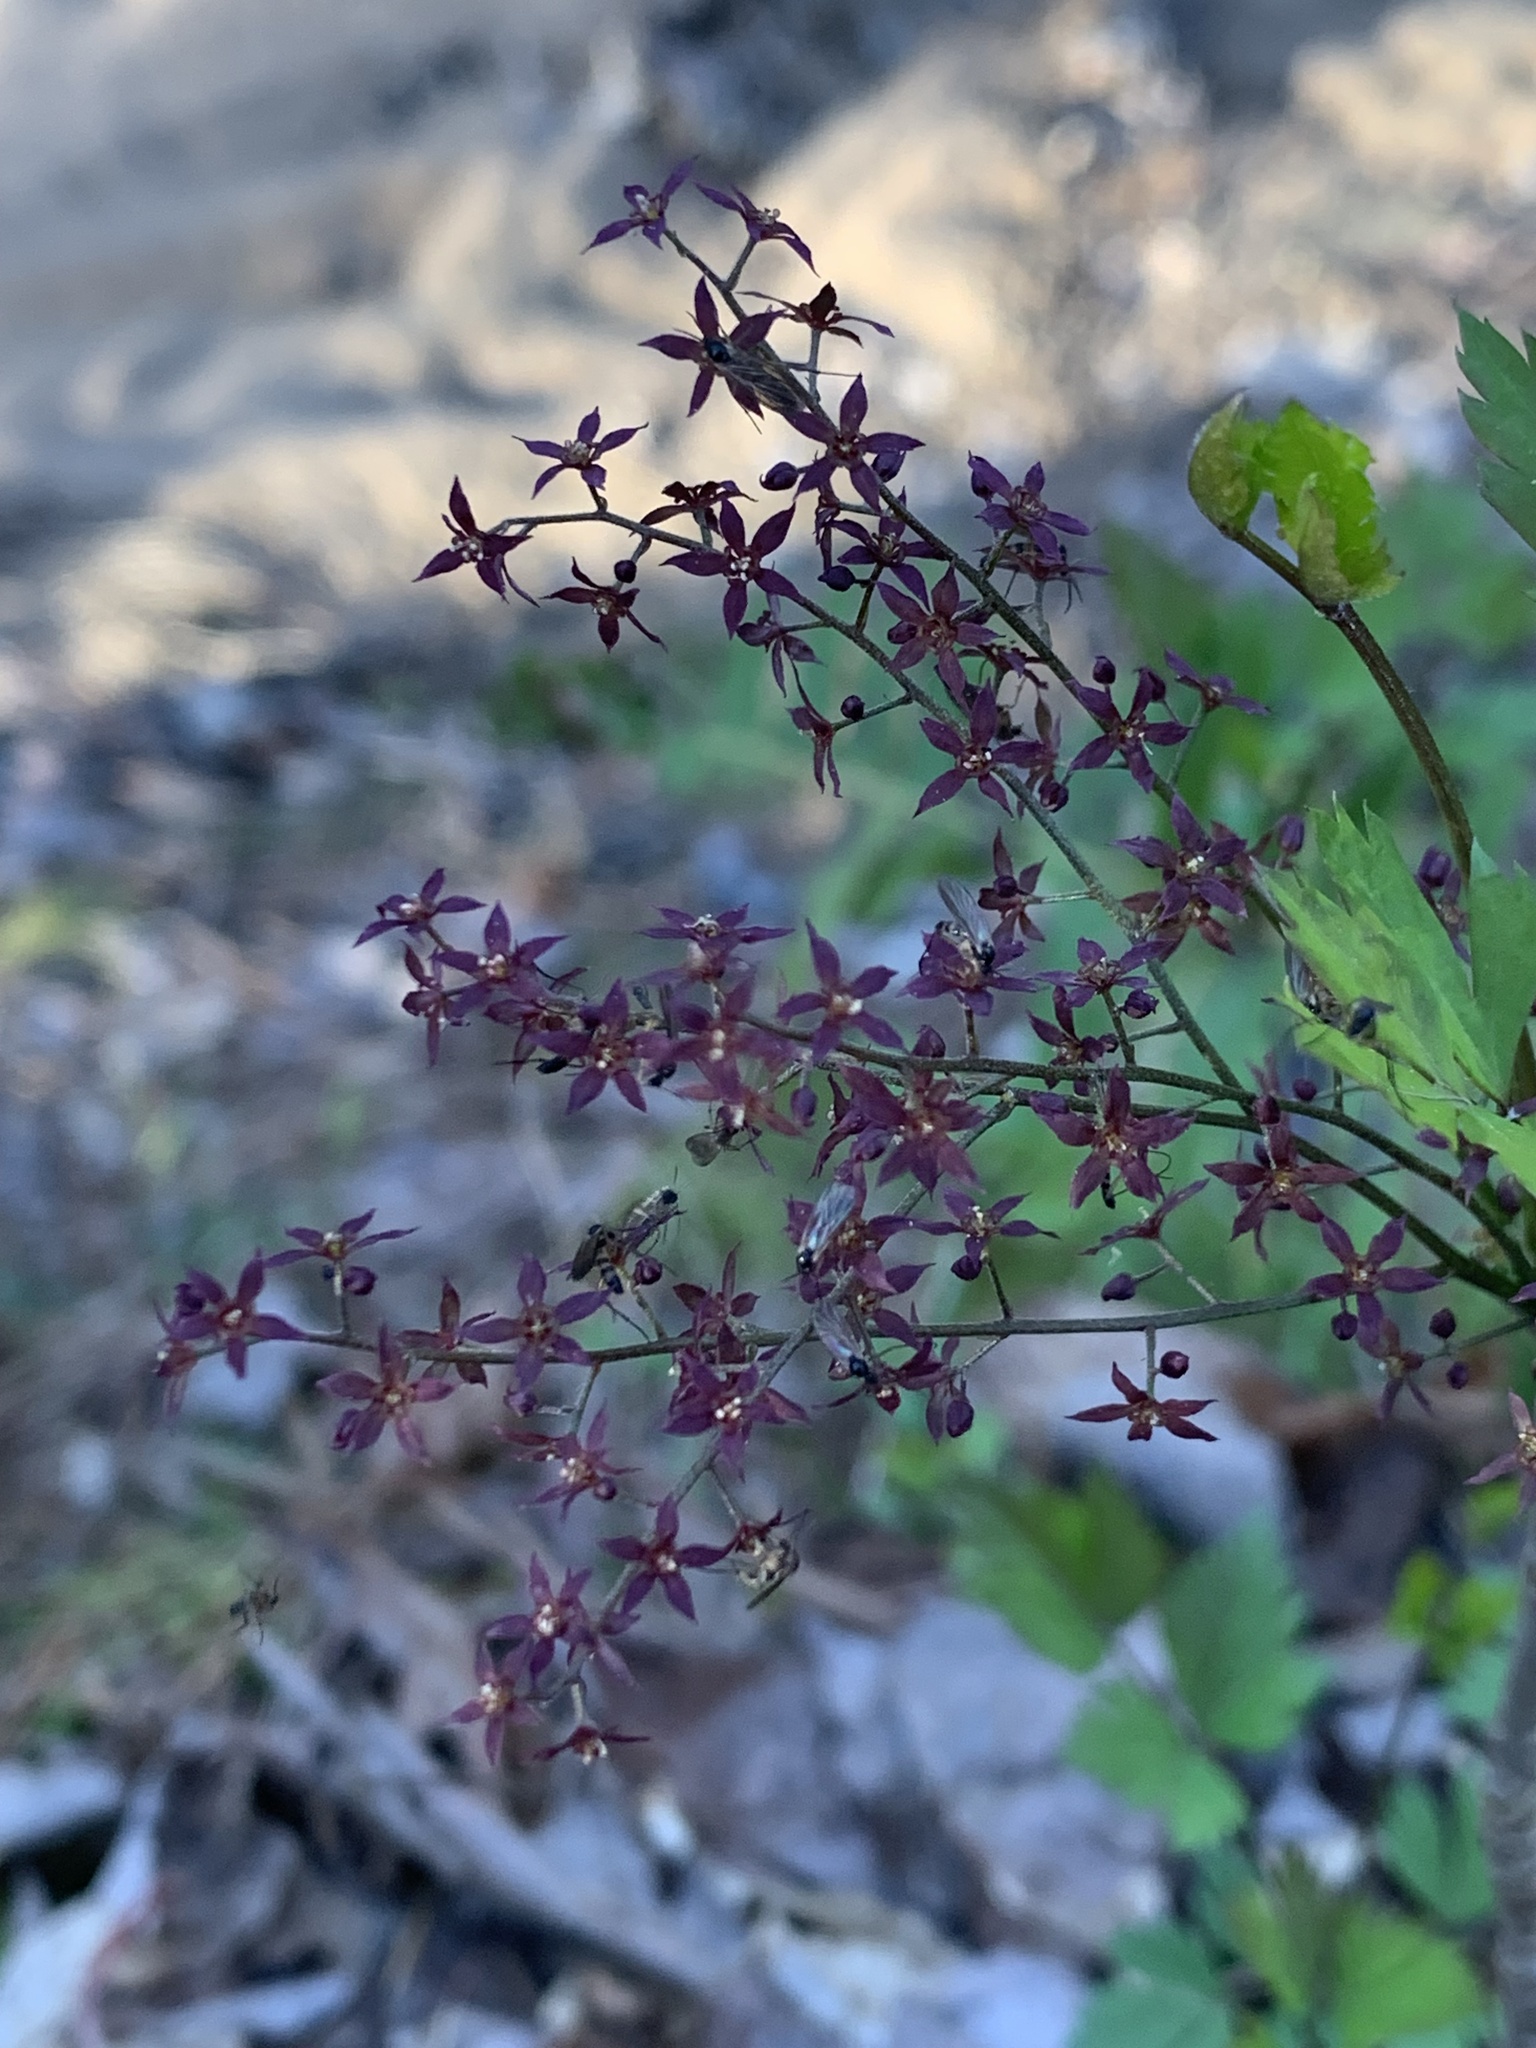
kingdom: Plantae
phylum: Tracheophyta
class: Magnoliopsida
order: Ranunculales
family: Ranunculaceae
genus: Xanthorhiza
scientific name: Xanthorhiza simplicissima
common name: Yellowroot
